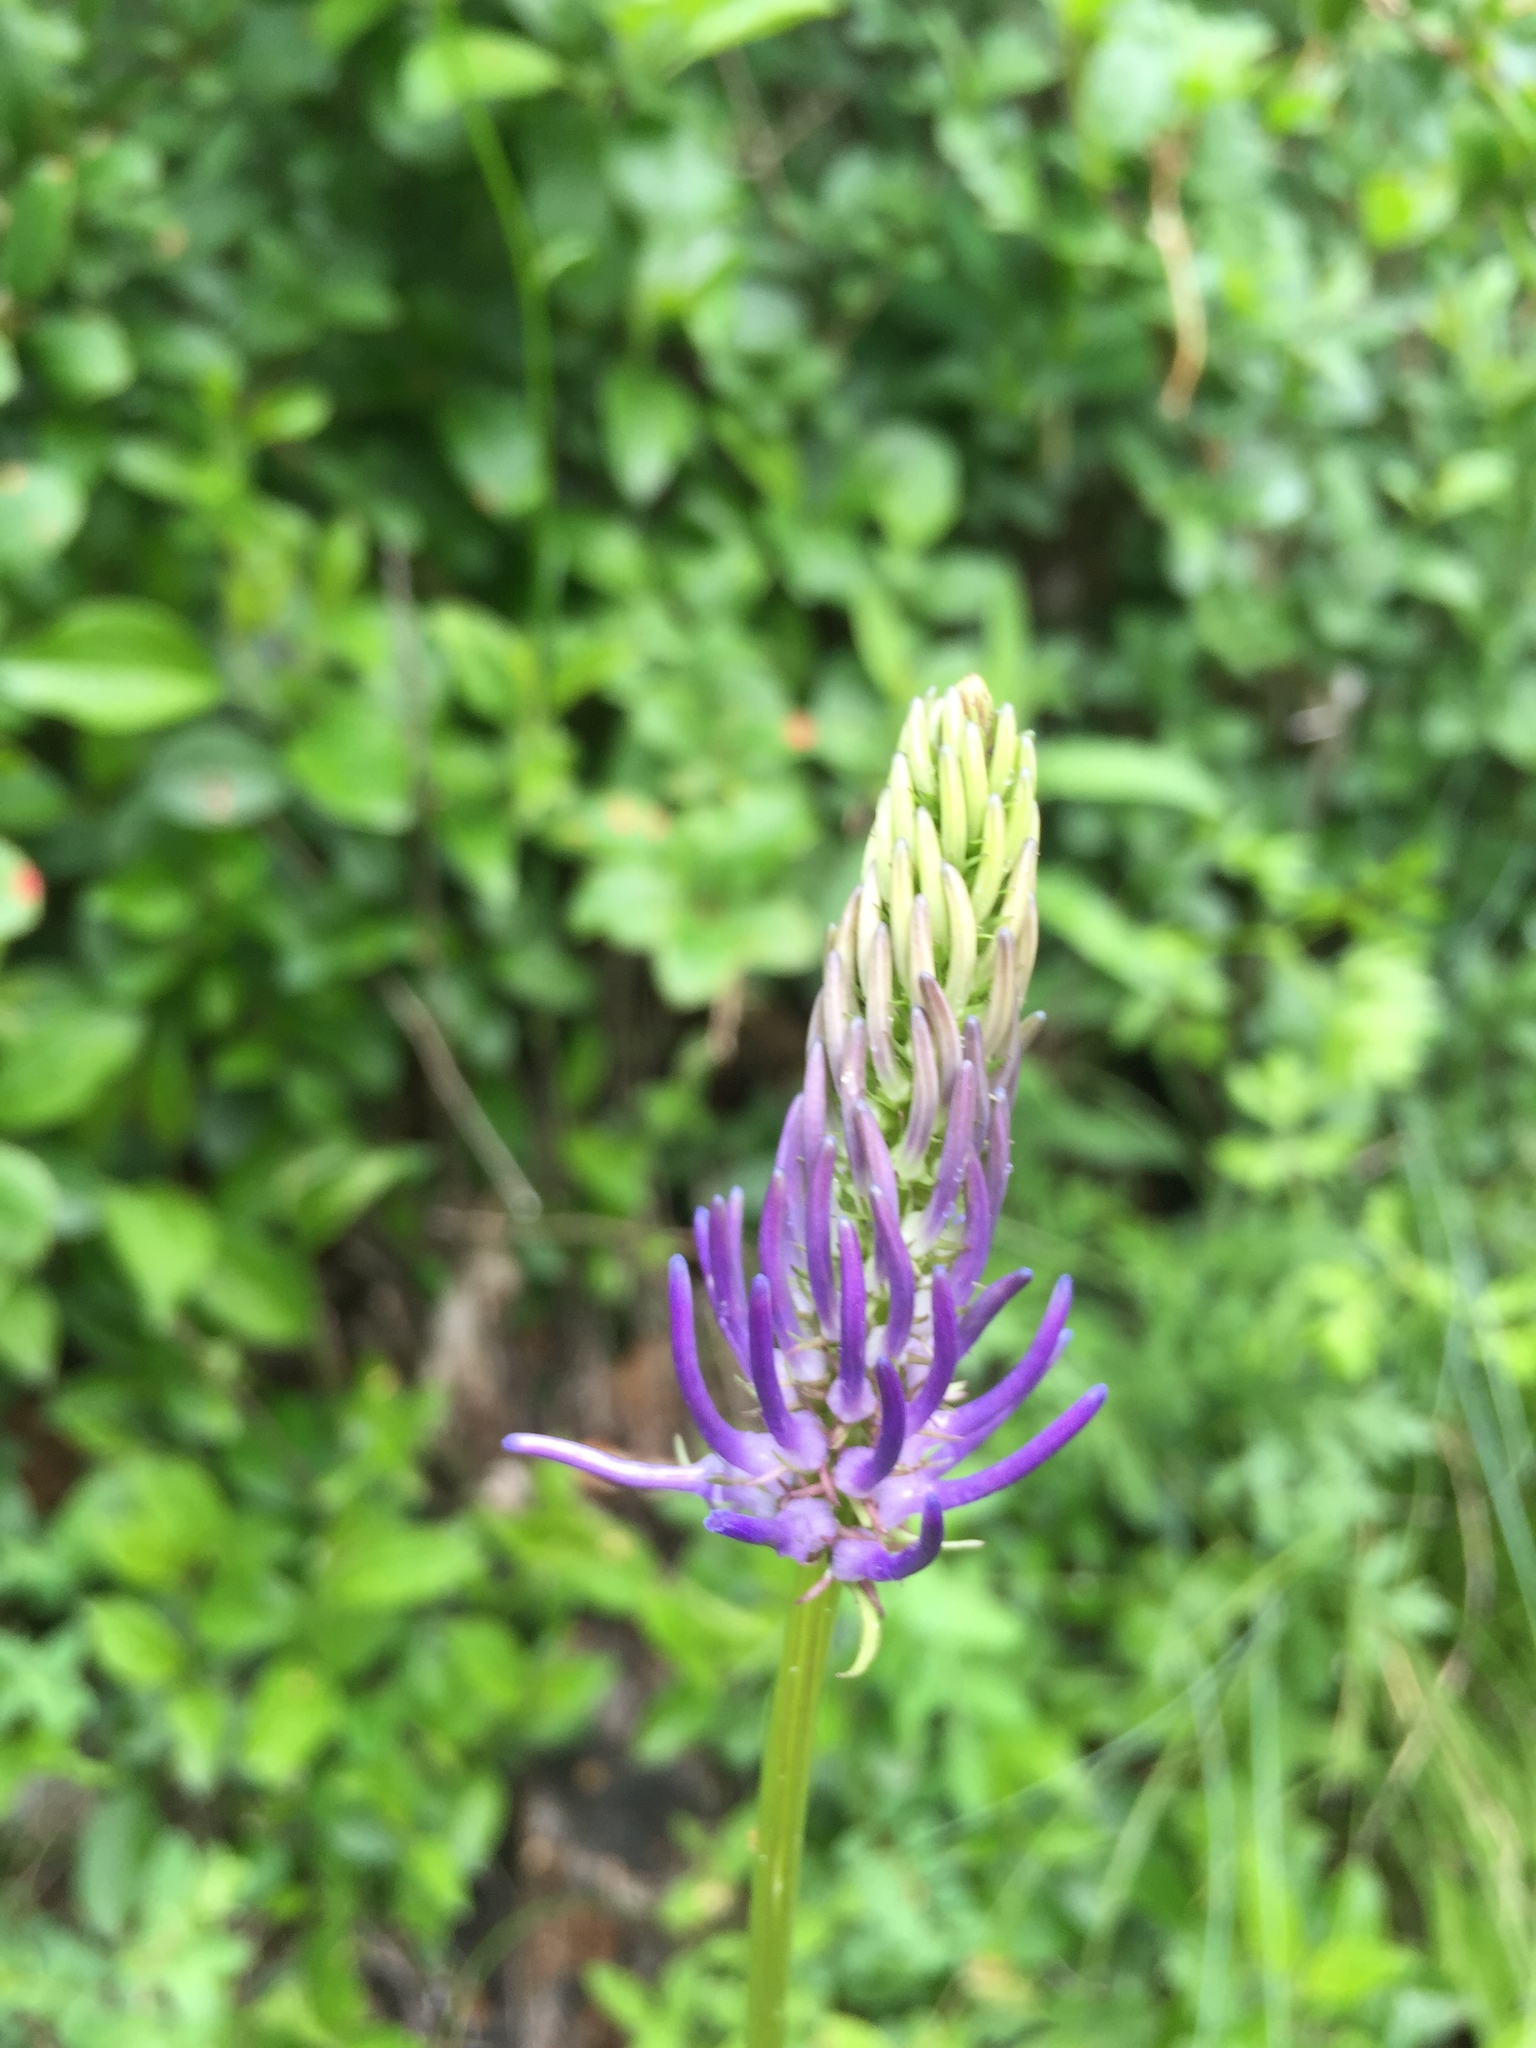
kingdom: Plantae
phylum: Tracheophyta
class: Magnoliopsida
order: Asterales
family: Campanulaceae
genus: Phyteuma
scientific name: Phyteuma betonicifolium
